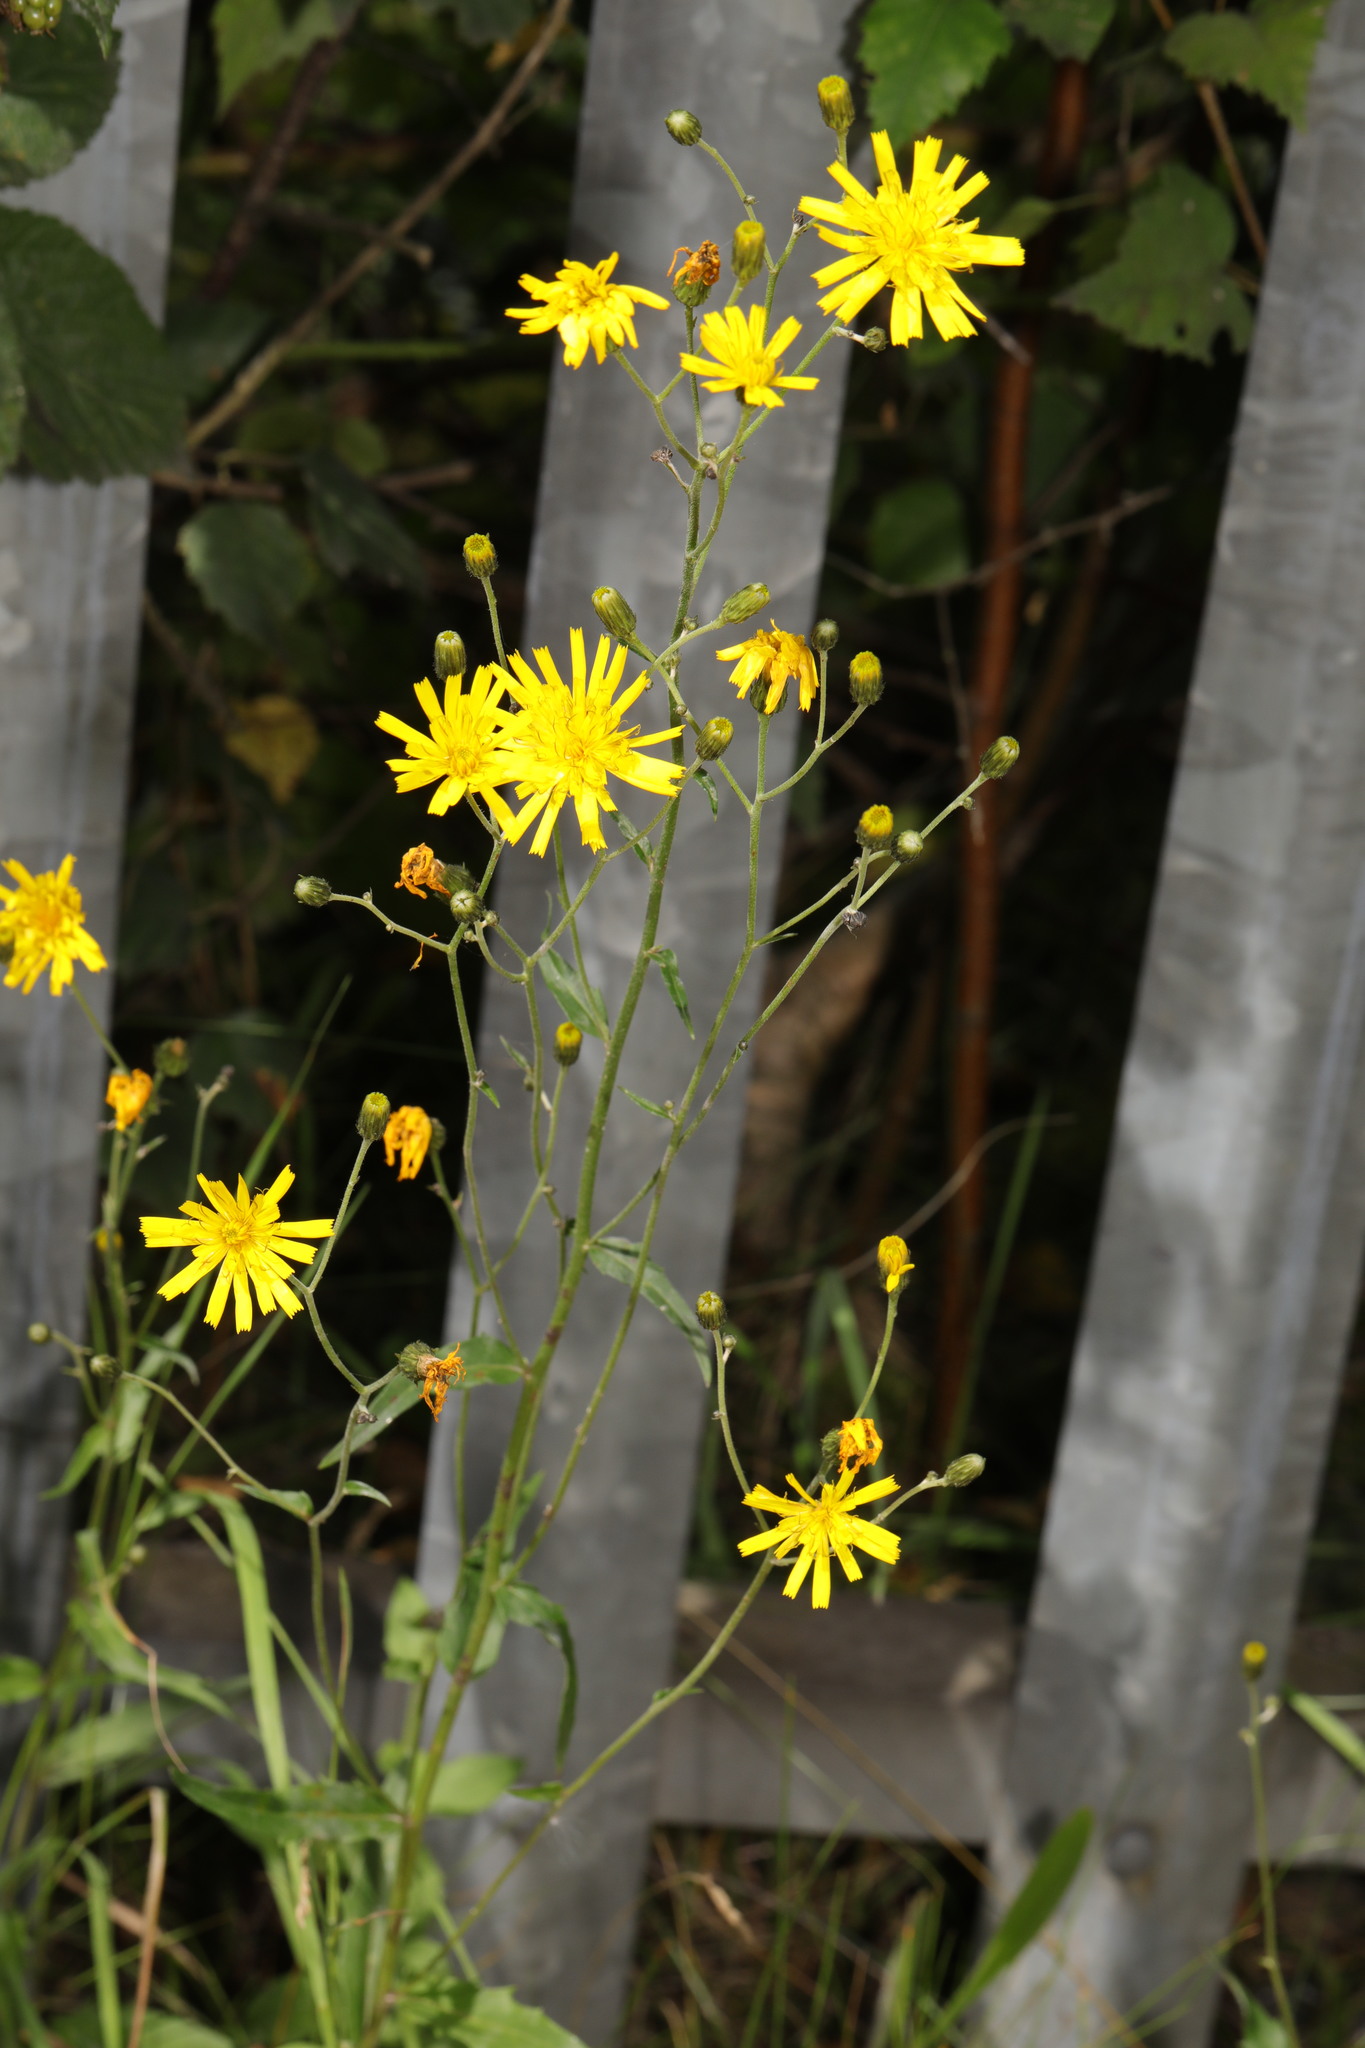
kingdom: Plantae
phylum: Tracheophyta
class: Magnoliopsida
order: Asterales
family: Asteraceae
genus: Crepis
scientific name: Crepis capillaris
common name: Smooth hawksbeard
